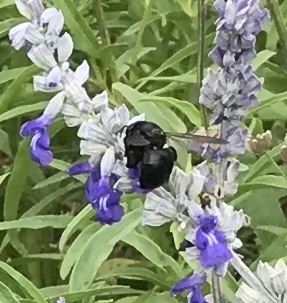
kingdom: Animalia
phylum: Arthropoda
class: Insecta
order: Hymenoptera
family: Apidae
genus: Xylocopa
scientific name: Xylocopa micans
